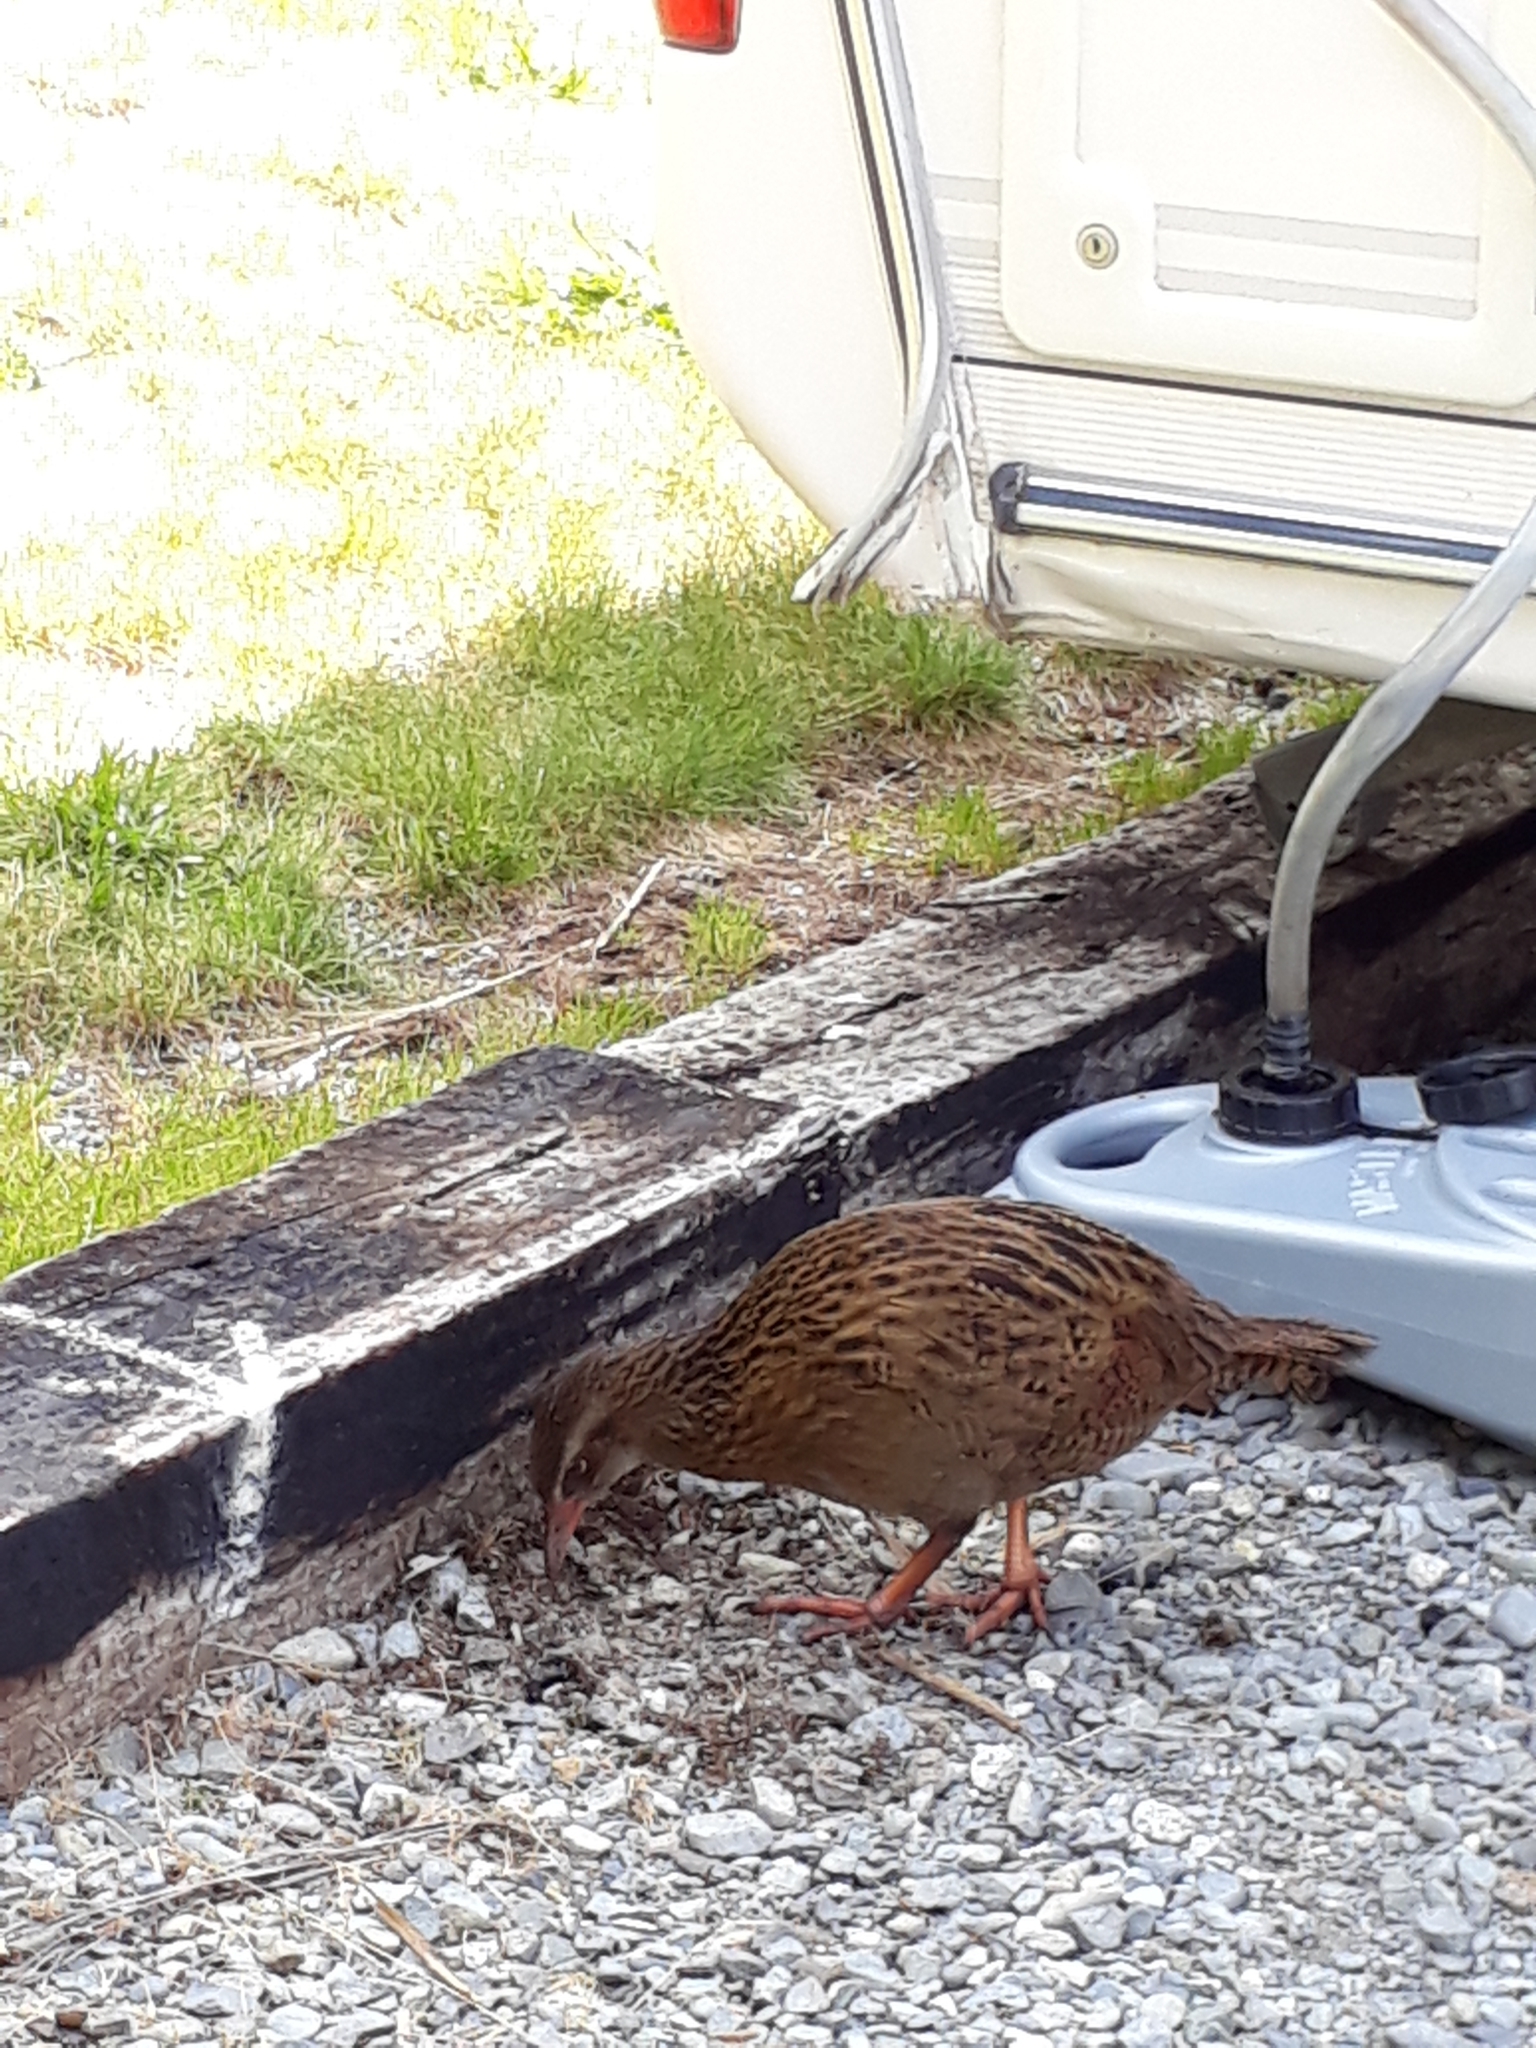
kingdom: Animalia
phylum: Chordata
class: Aves
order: Gruiformes
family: Rallidae
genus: Gallirallus
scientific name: Gallirallus australis
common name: Weka
